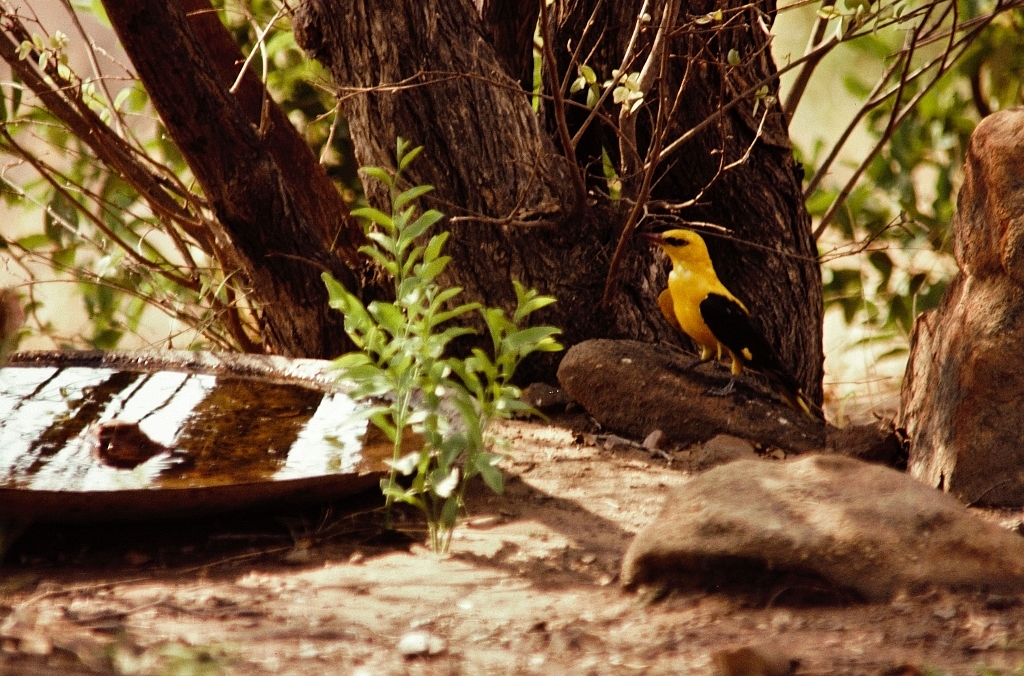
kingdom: Animalia
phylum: Chordata
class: Aves
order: Passeriformes
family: Oriolidae
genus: Oriolus
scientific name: Oriolus oriolus
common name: Eurasian golden oriole
